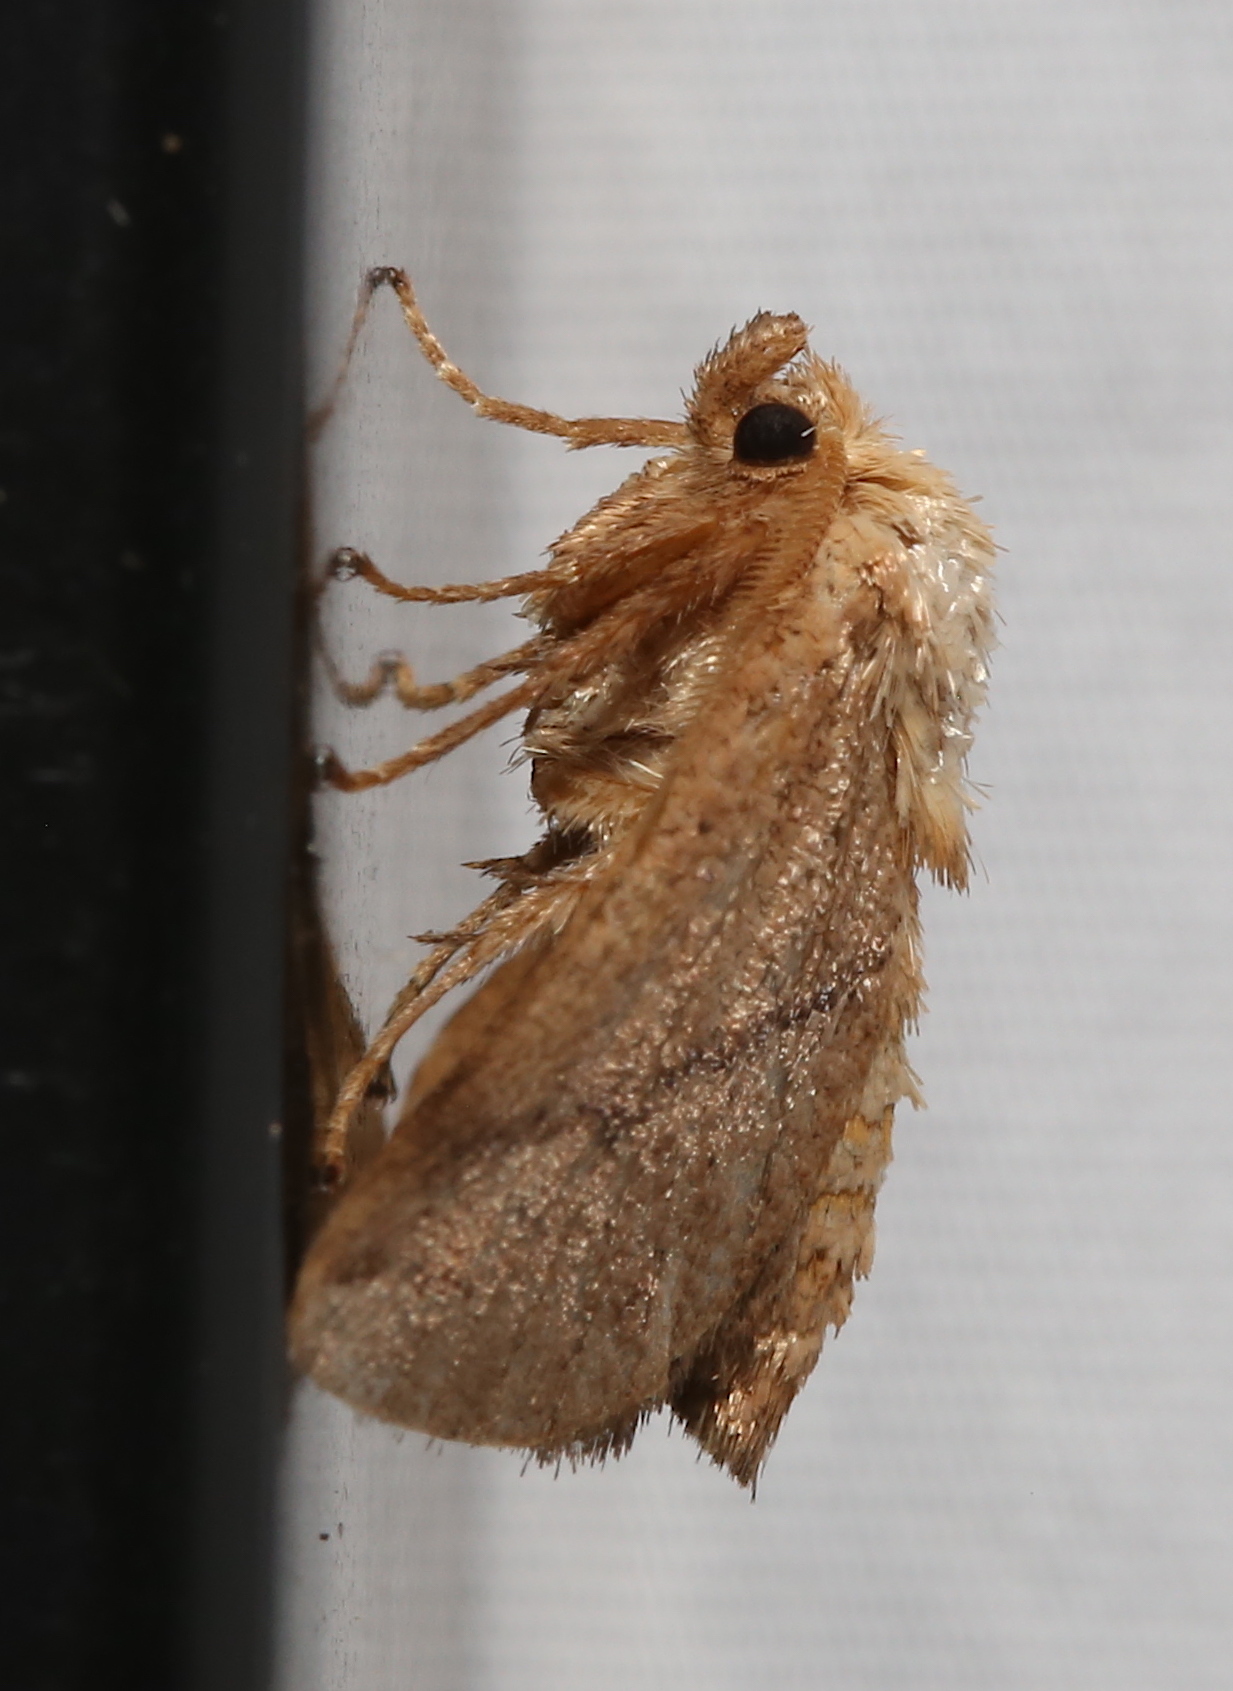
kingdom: Animalia
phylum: Arthropoda
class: Insecta
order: Lepidoptera
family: Limacodidae
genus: Natada
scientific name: Natada nasoni
